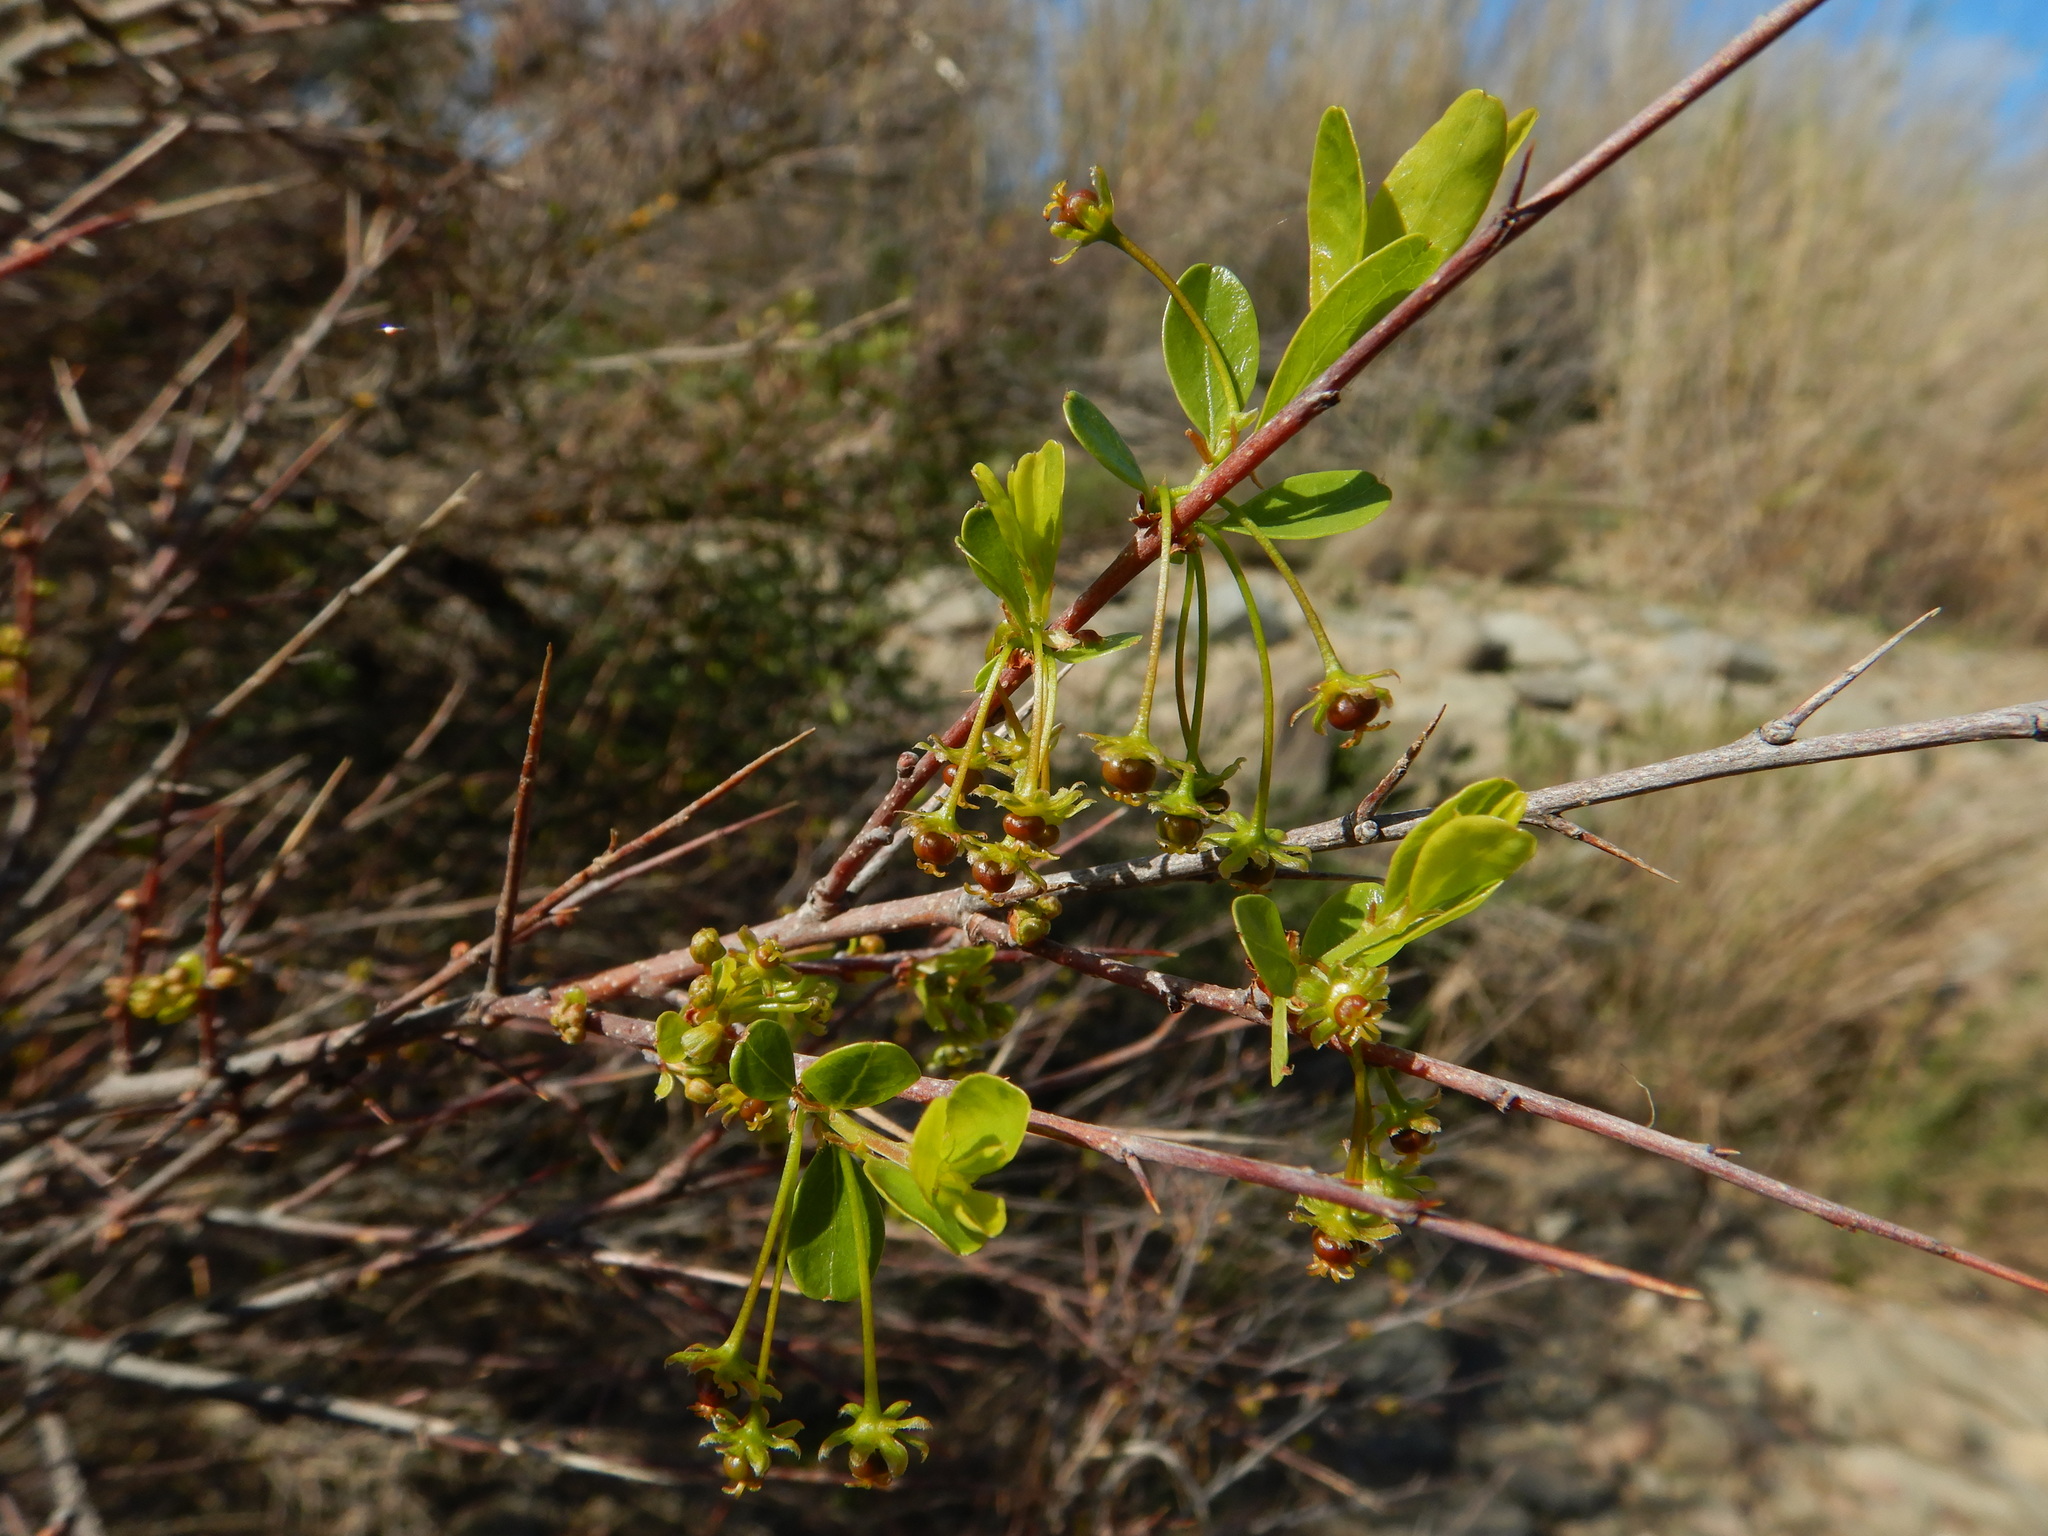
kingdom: Plantae
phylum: Tracheophyta
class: Magnoliopsida
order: Malpighiales
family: Phyllanthaceae
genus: Flueggea
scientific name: Flueggea tinctoria
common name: Tamujo
